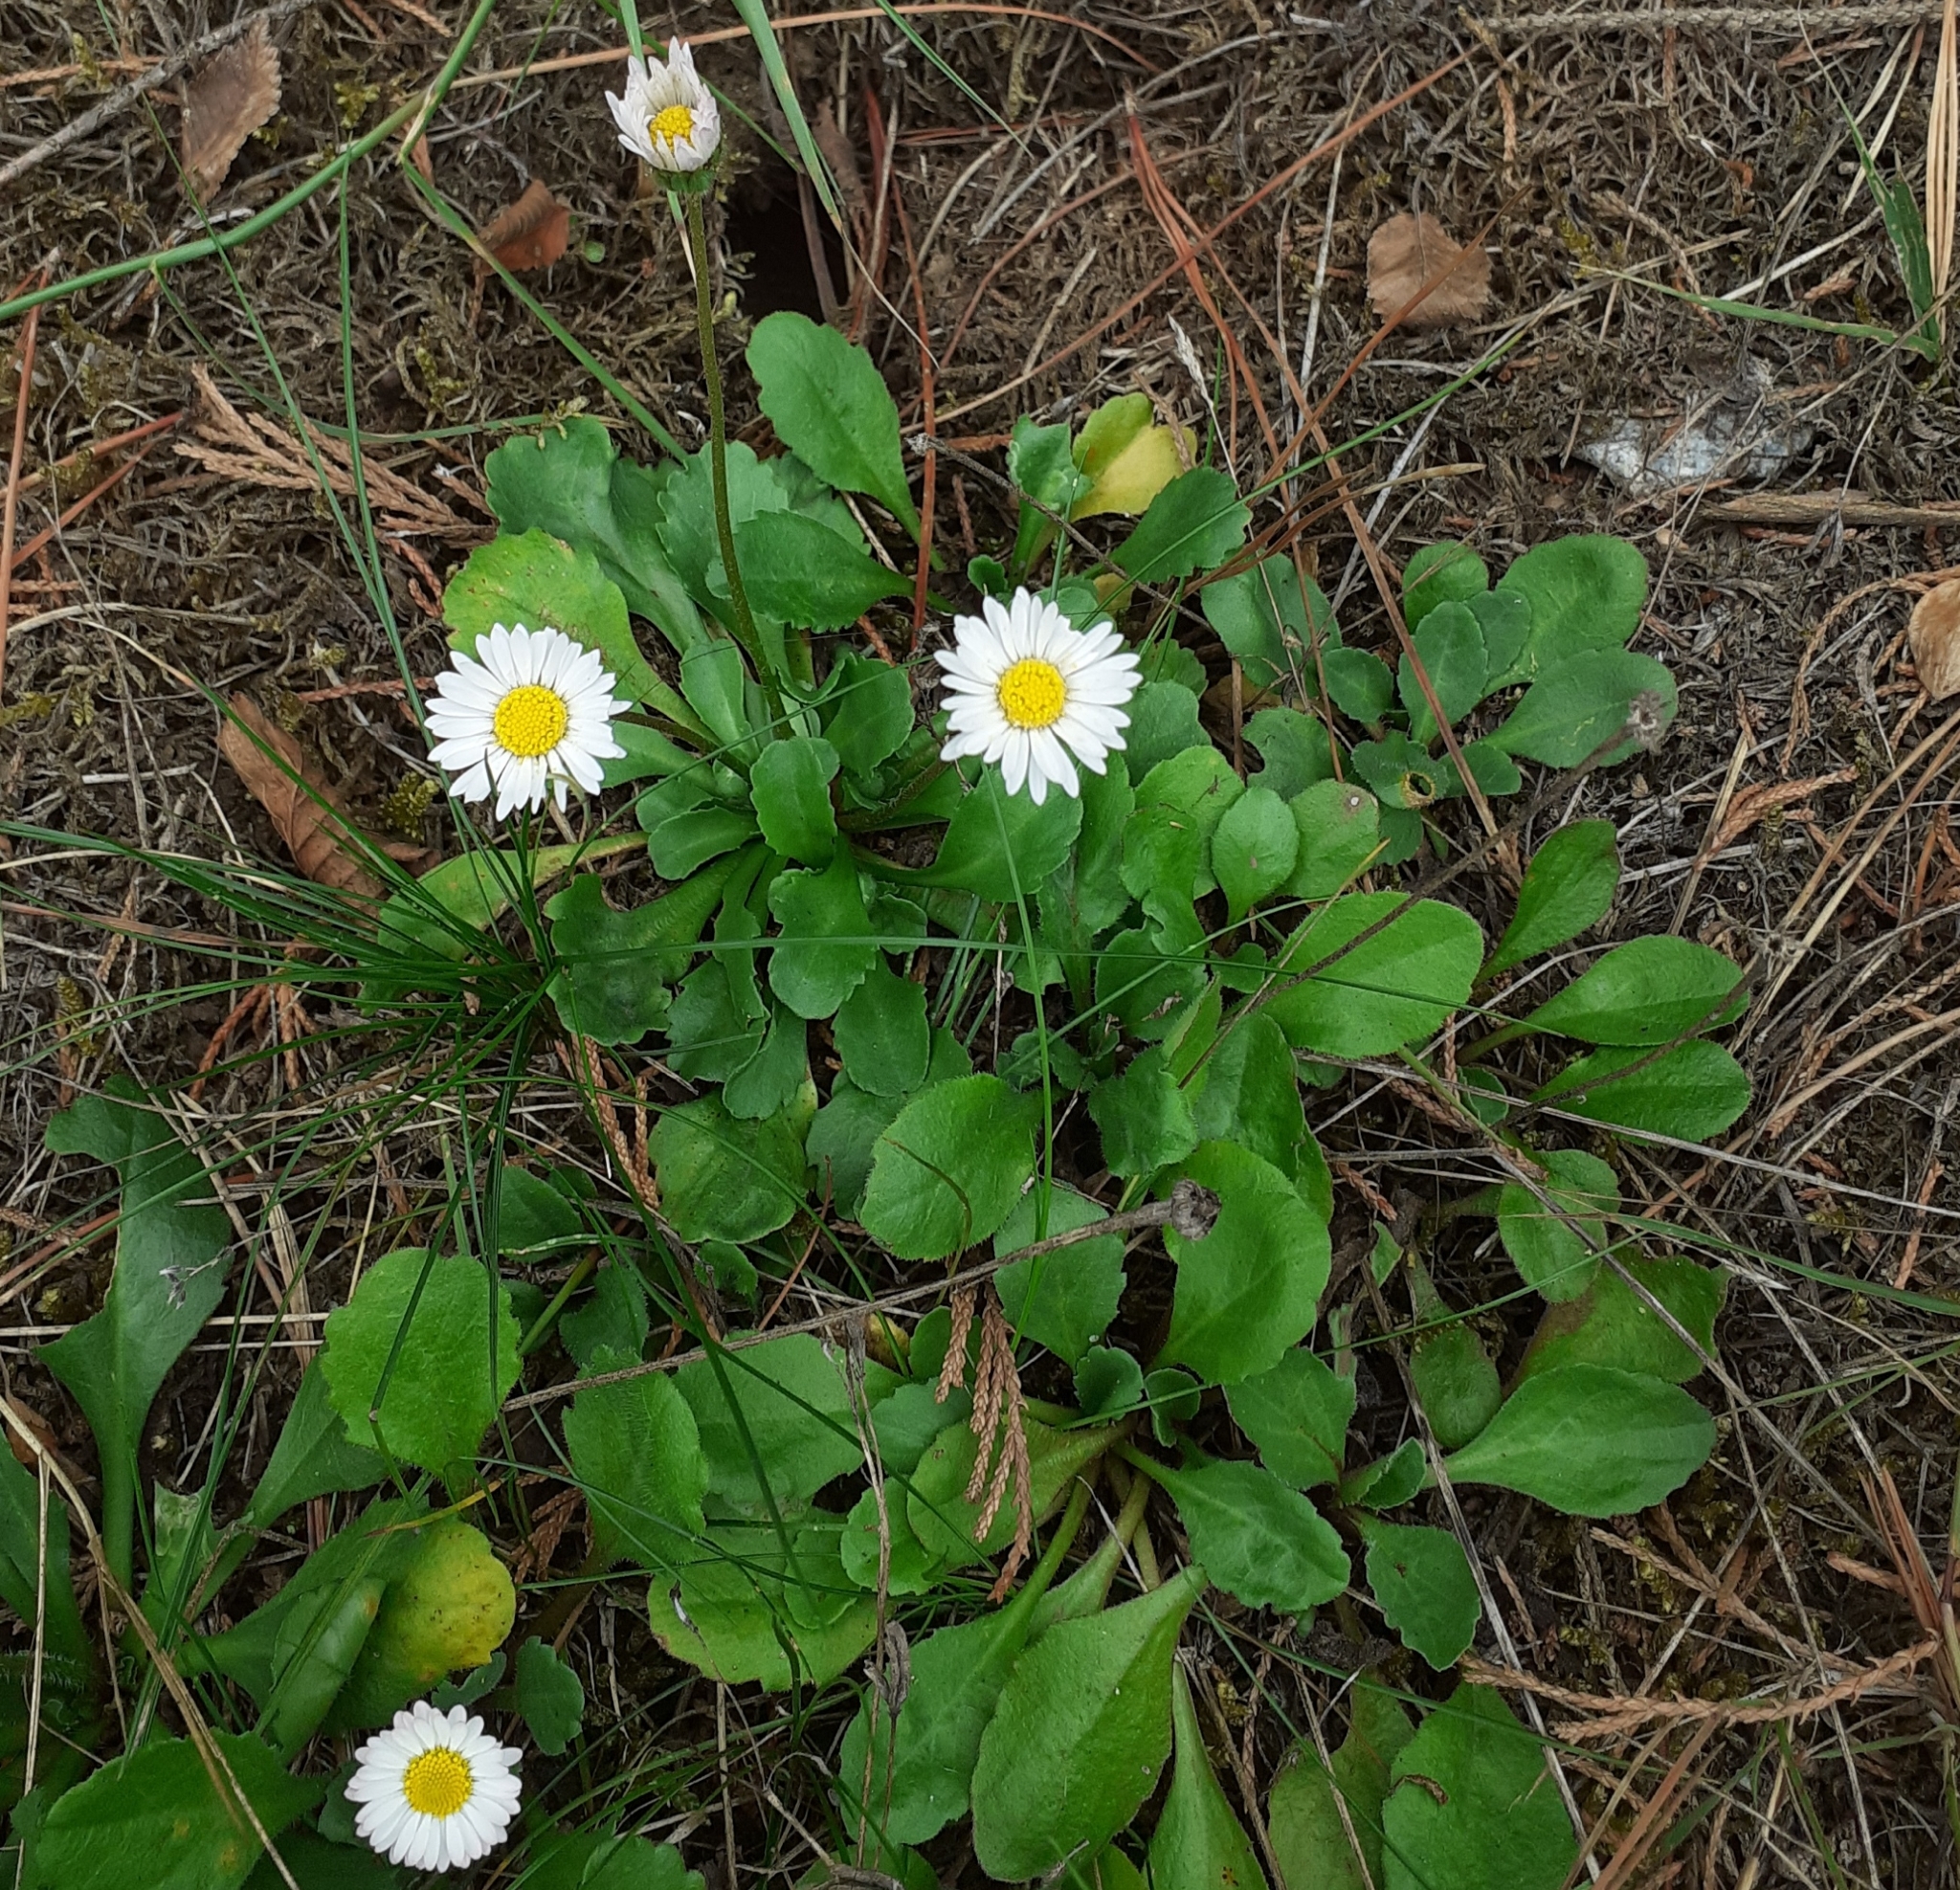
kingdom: Plantae
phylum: Tracheophyta
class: Magnoliopsida
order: Asterales
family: Asteraceae
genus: Bellis
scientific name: Bellis perennis
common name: Lawndaisy
